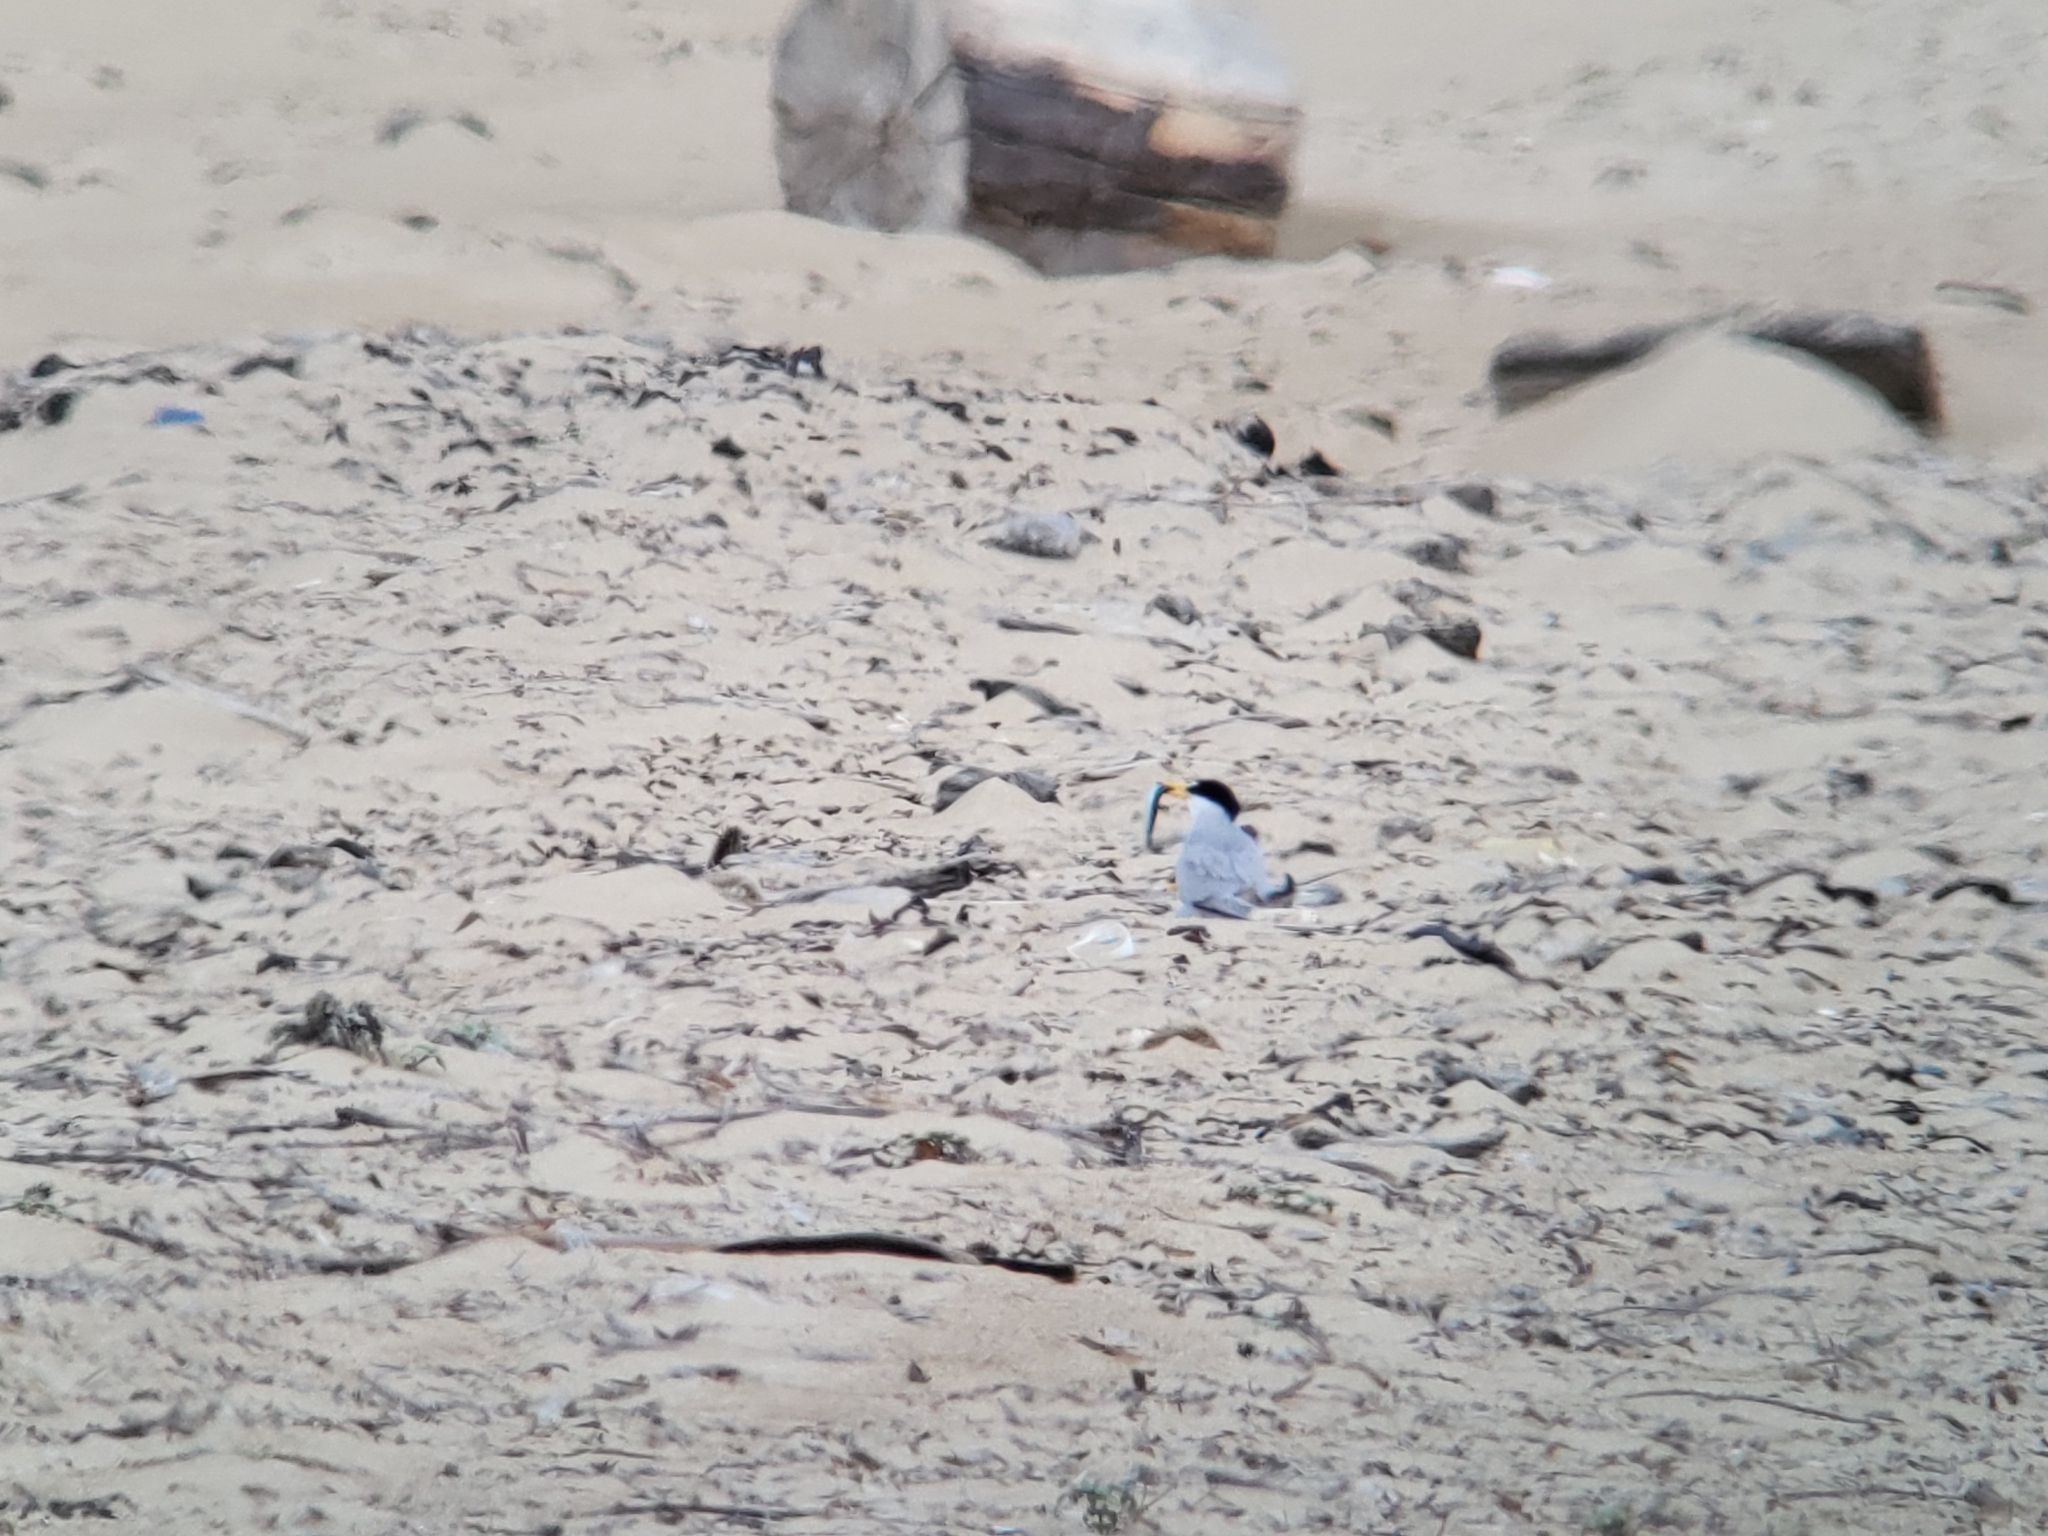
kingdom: Animalia
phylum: Chordata
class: Aves
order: Charadriiformes
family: Laridae
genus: Sternula
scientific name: Sternula antillarum
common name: Least tern
